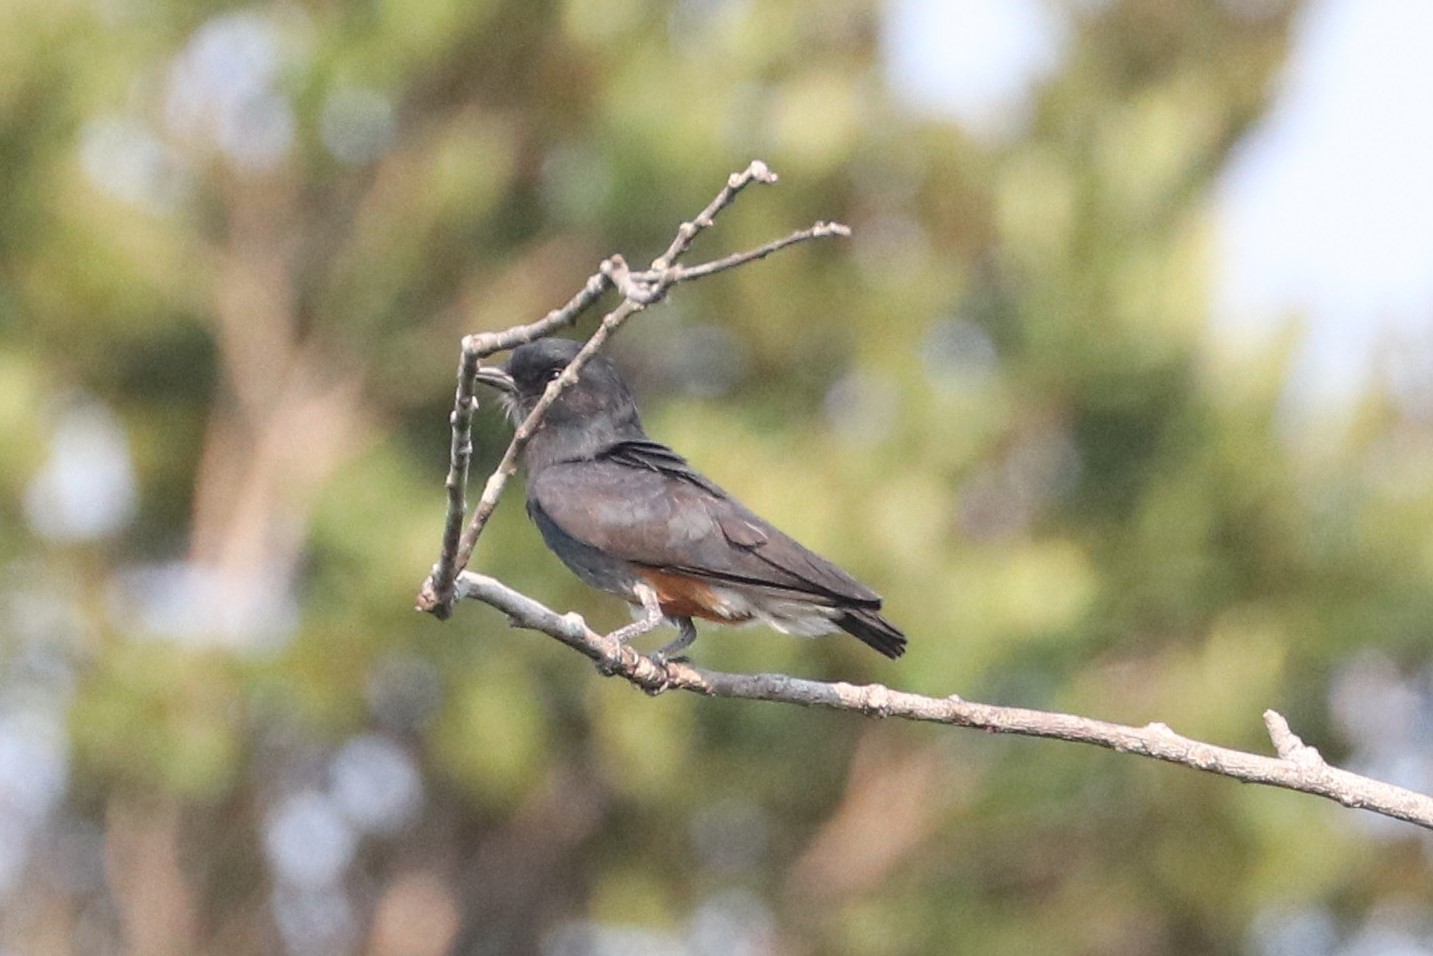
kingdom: Animalia
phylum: Chordata
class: Aves
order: Piciformes
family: Bucconidae
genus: Chelidoptera
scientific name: Chelidoptera tenebrosa
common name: Swallow-winged puffbird
